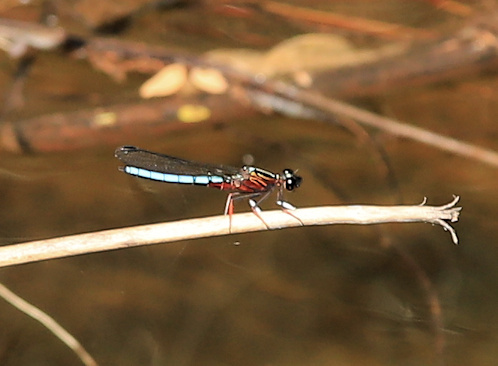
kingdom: Animalia
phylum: Arthropoda
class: Insecta
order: Odonata
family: Chlorocyphidae
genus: Platycypha
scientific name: Platycypha caligata
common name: Dancing jewel
